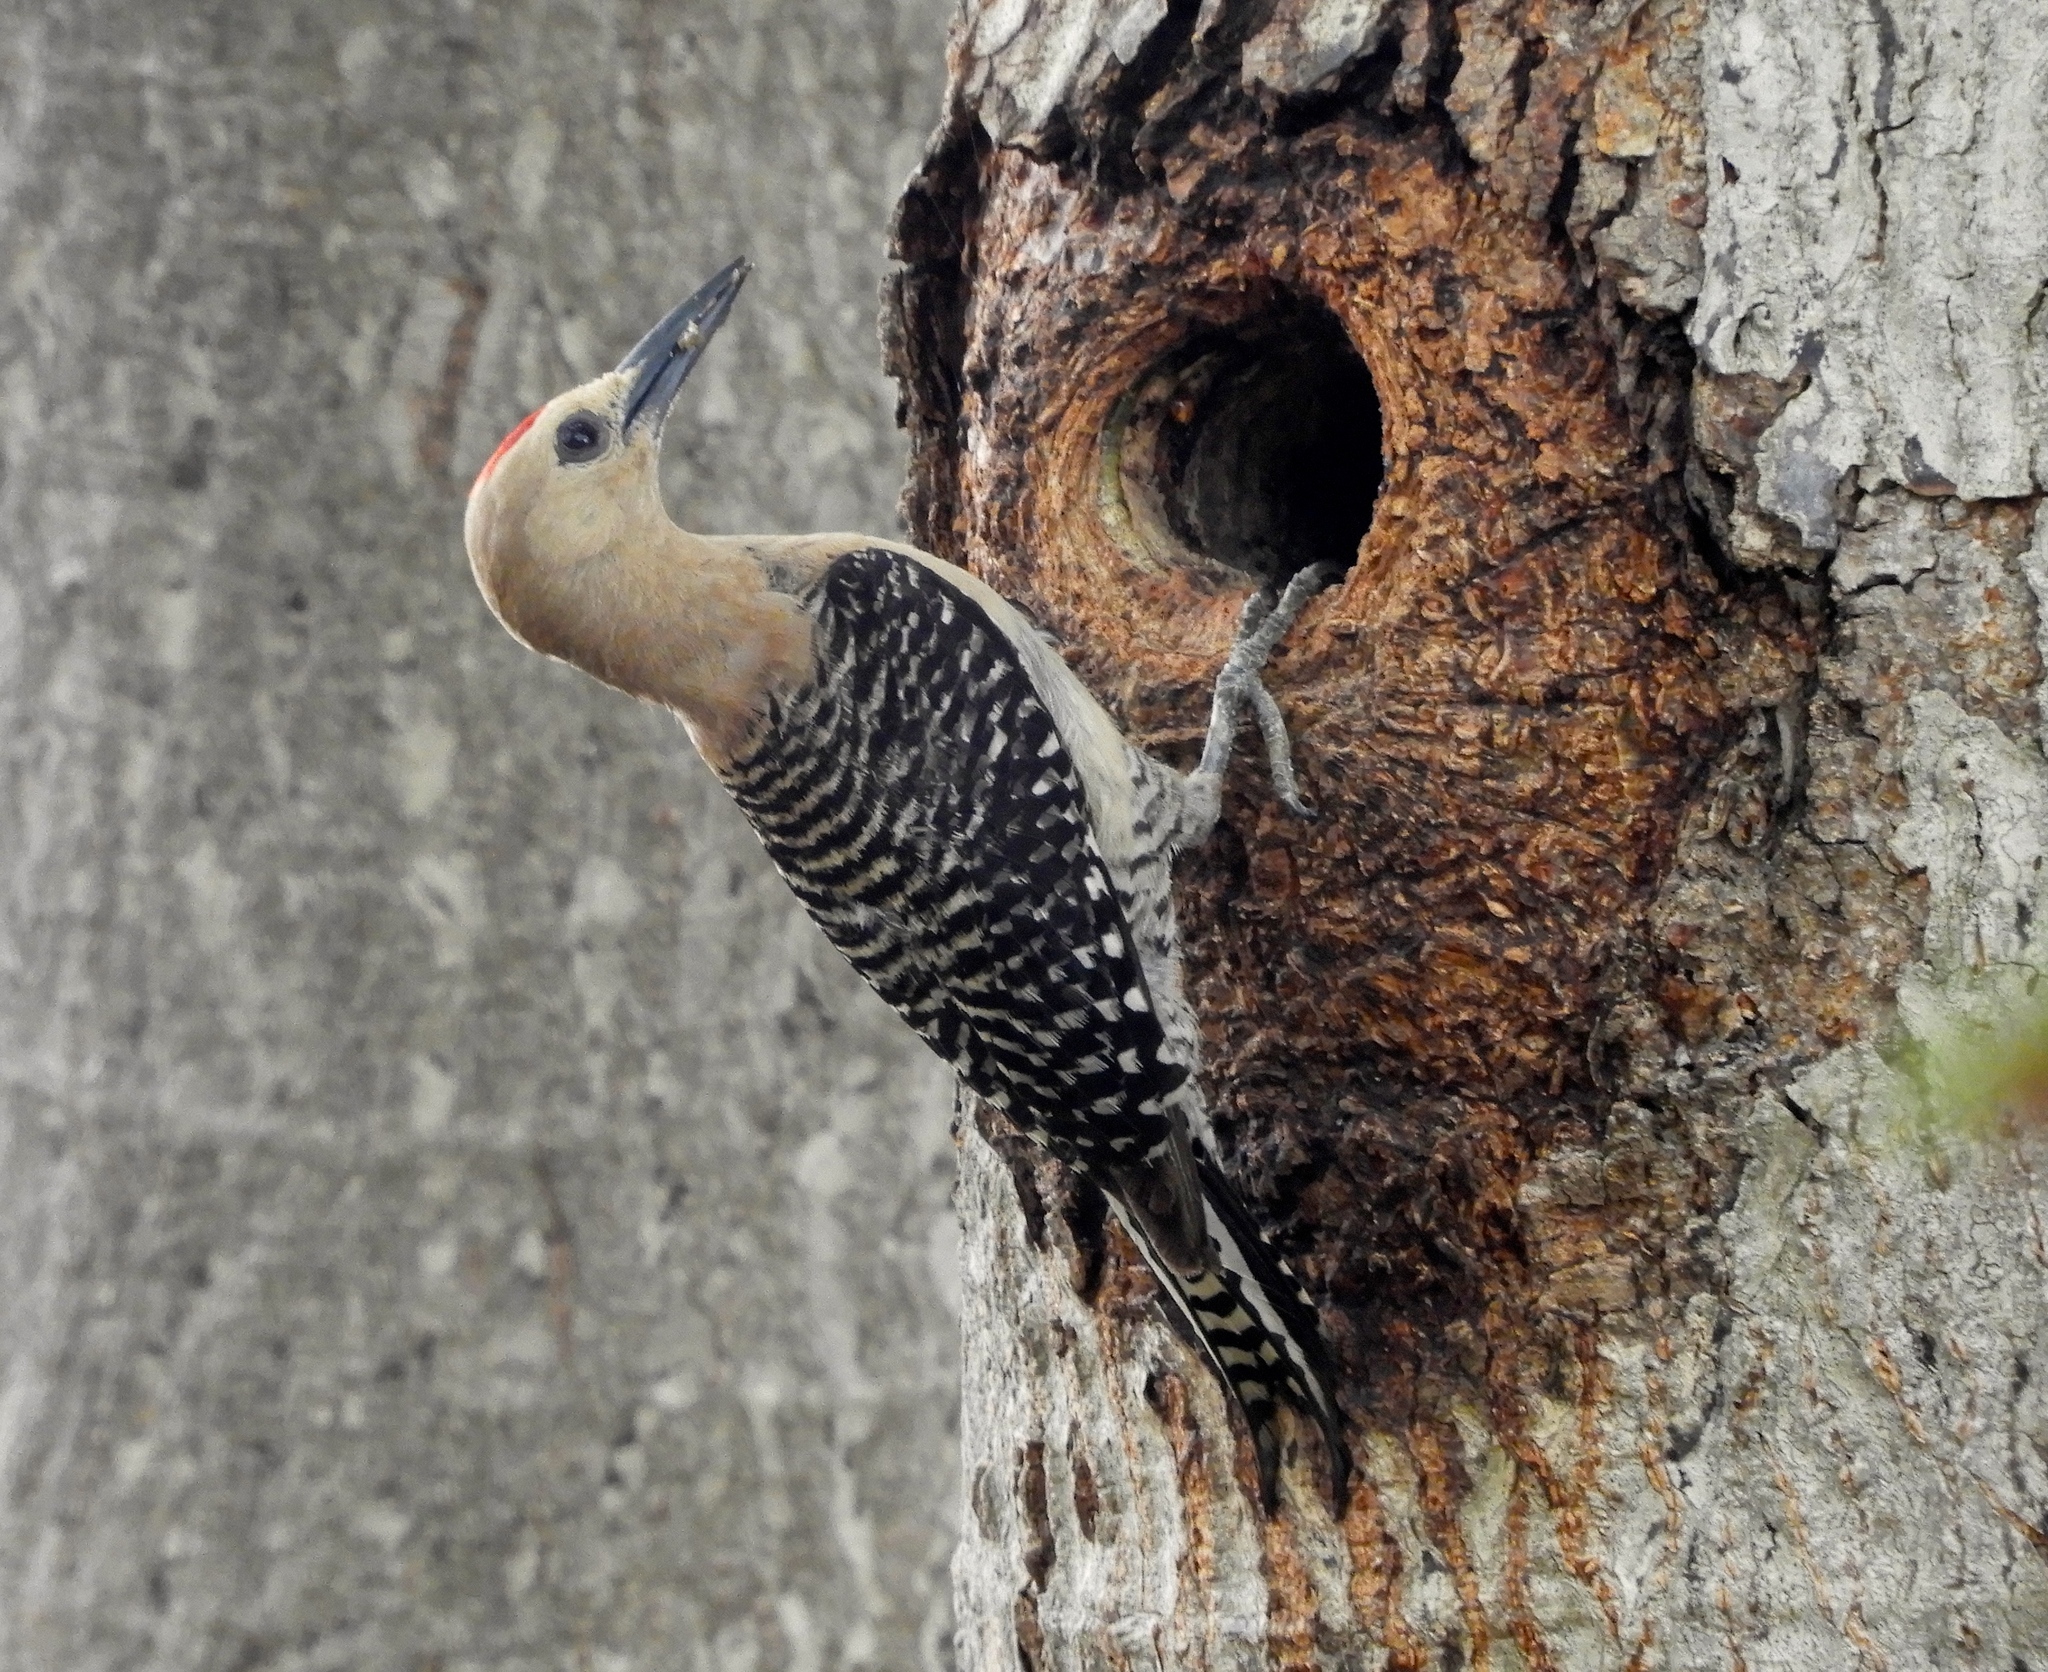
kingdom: Animalia
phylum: Chordata
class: Aves
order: Piciformes
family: Picidae
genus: Melanerpes
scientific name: Melanerpes uropygialis
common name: Gila woodpecker
